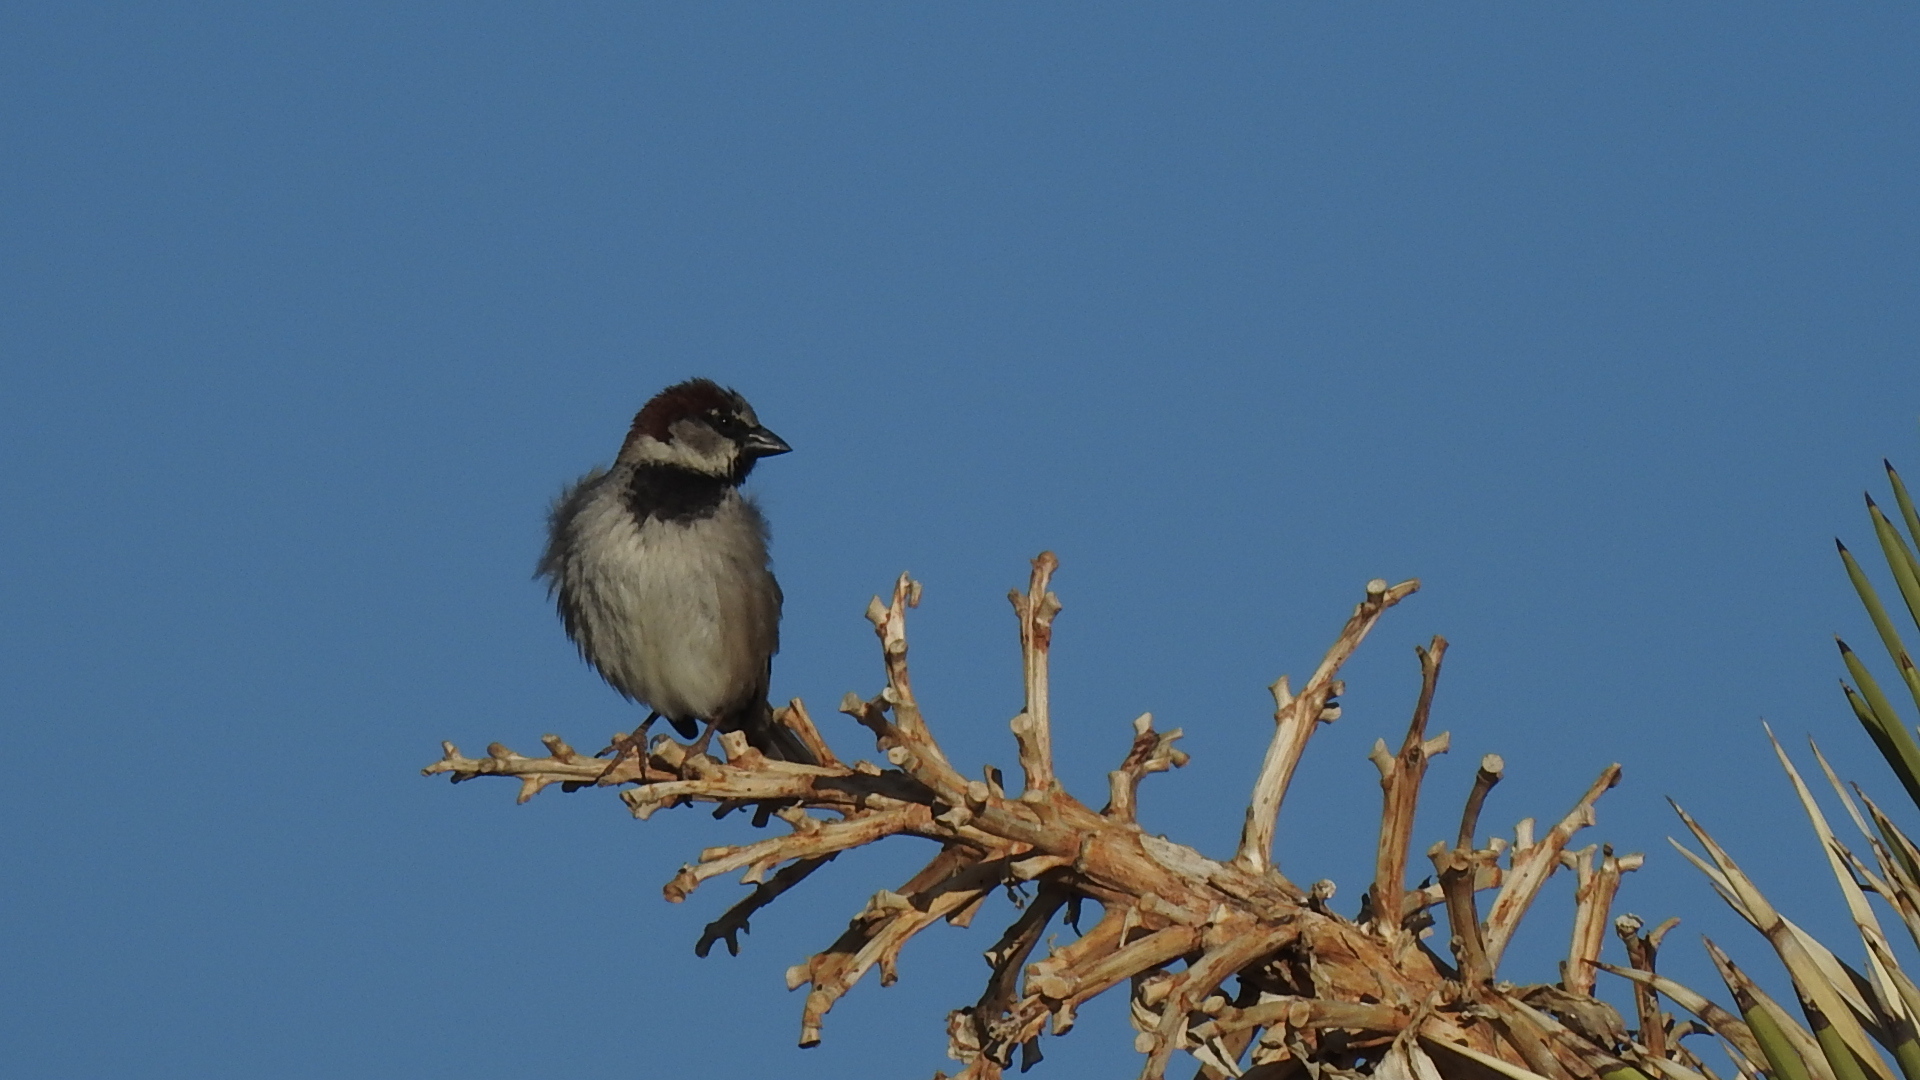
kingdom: Animalia
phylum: Chordata
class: Aves
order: Passeriformes
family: Passeridae
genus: Passer
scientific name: Passer domesticus
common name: House sparrow
